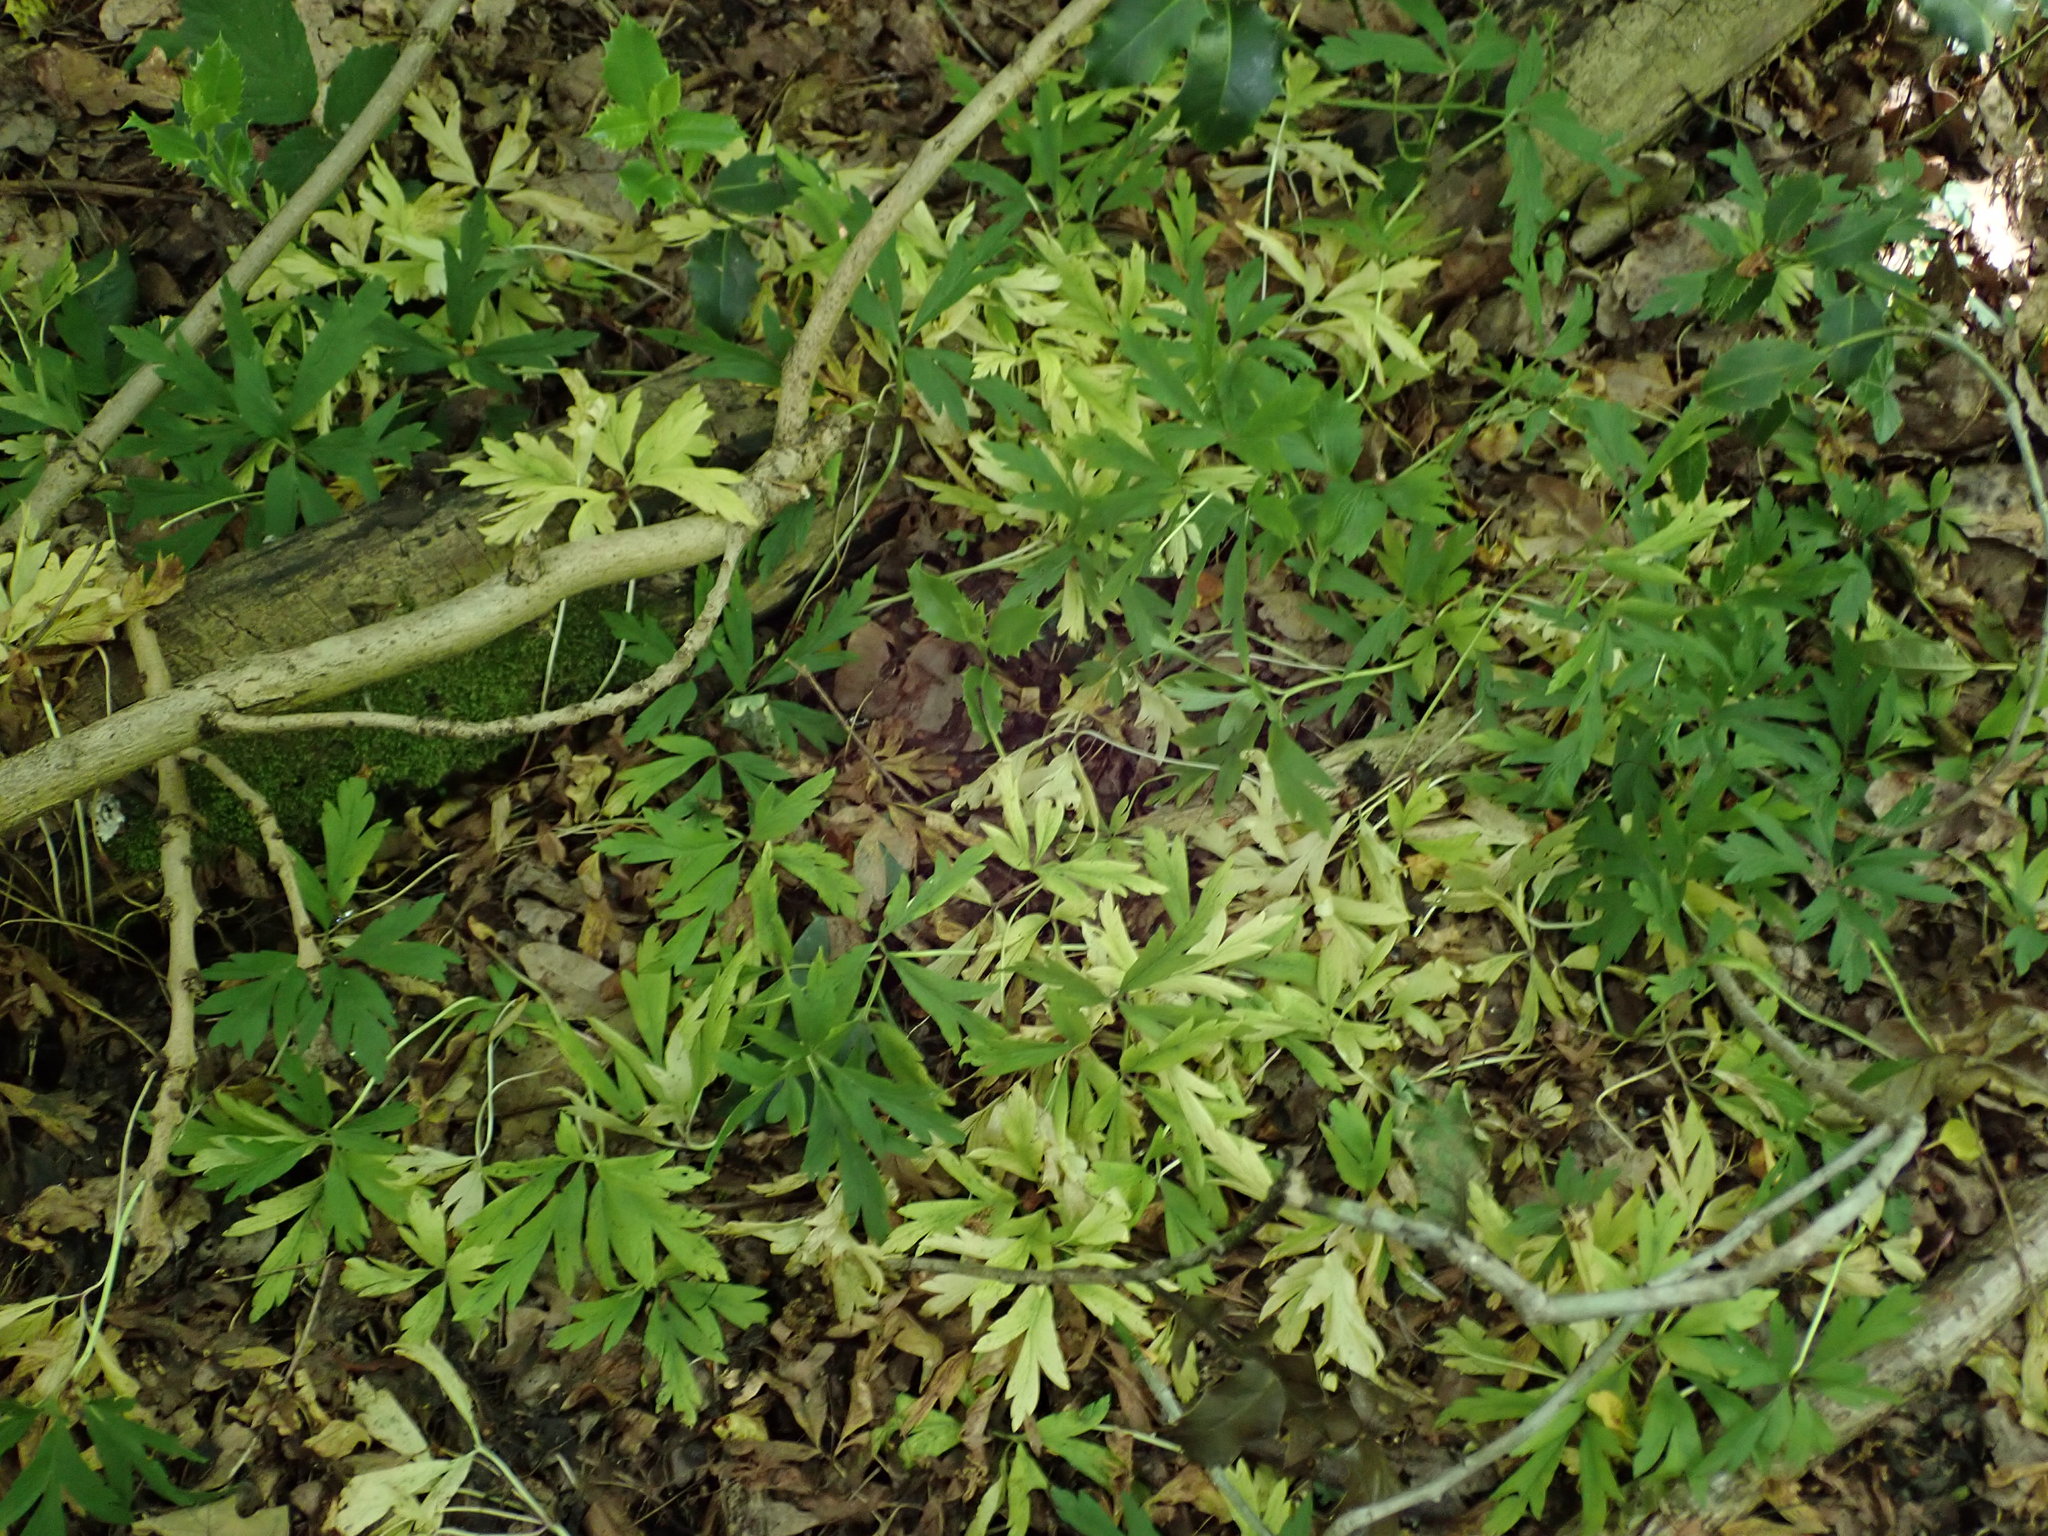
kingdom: Plantae
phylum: Tracheophyta
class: Magnoliopsida
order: Ranunculales
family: Ranunculaceae
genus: Anemone
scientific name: Anemone nemorosa
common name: Wood anemone
